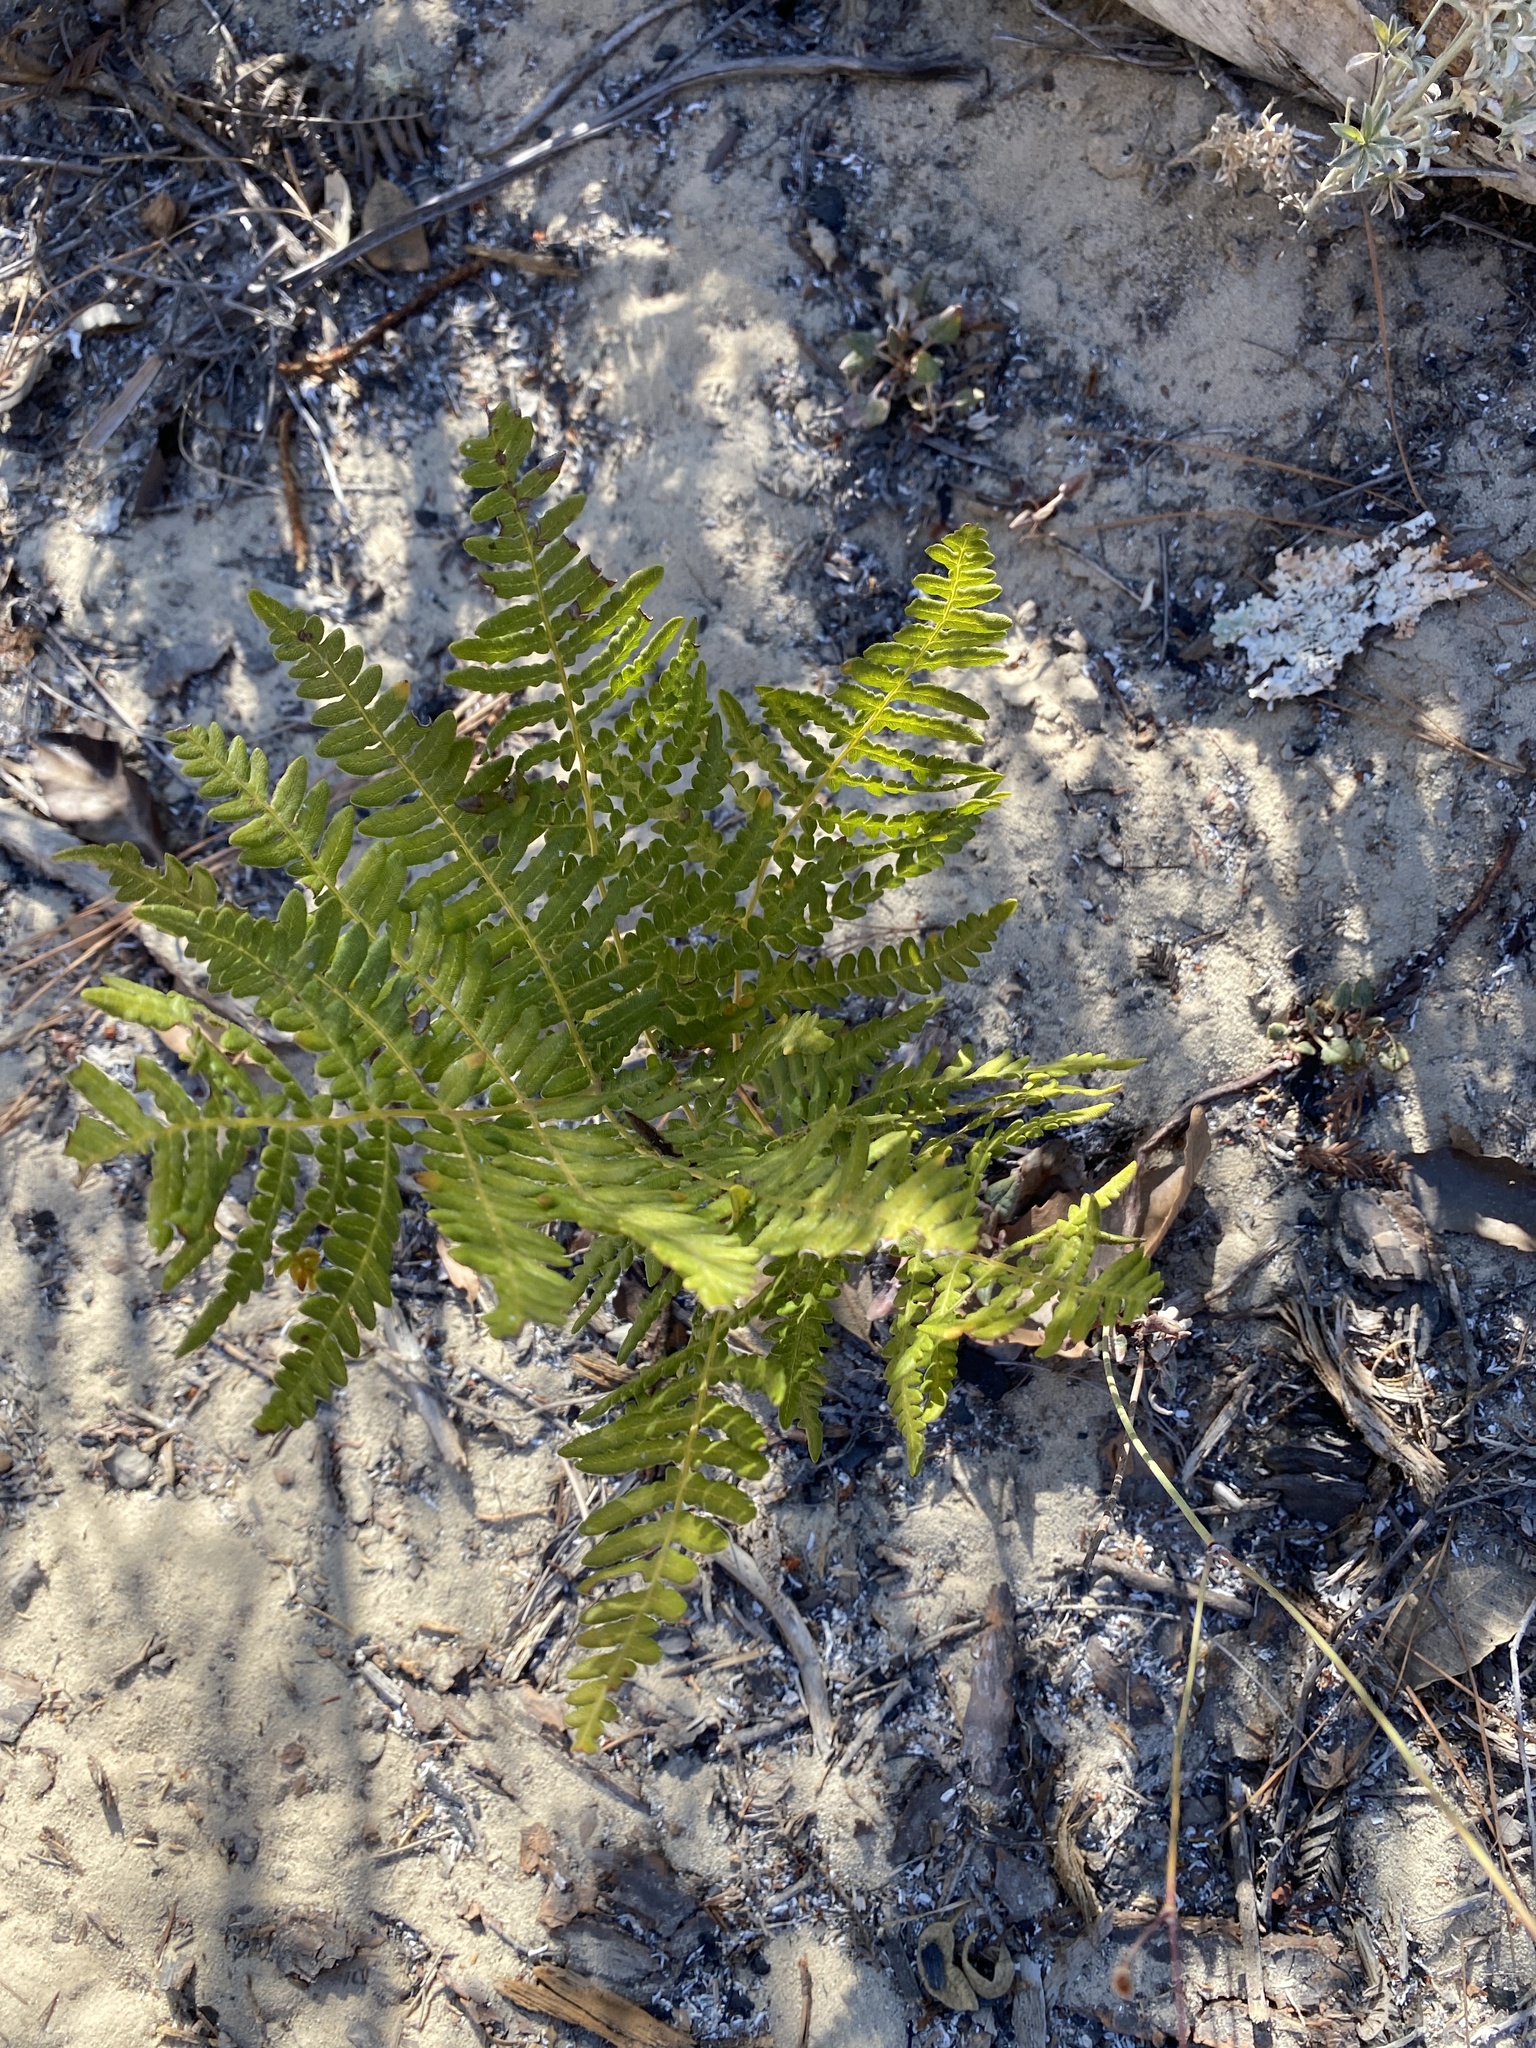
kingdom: Plantae
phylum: Tracheophyta
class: Polypodiopsida
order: Polypodiales
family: Dennstaedtiaceae
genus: Pteridium
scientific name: Pteridium aquilinum
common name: Bracken
